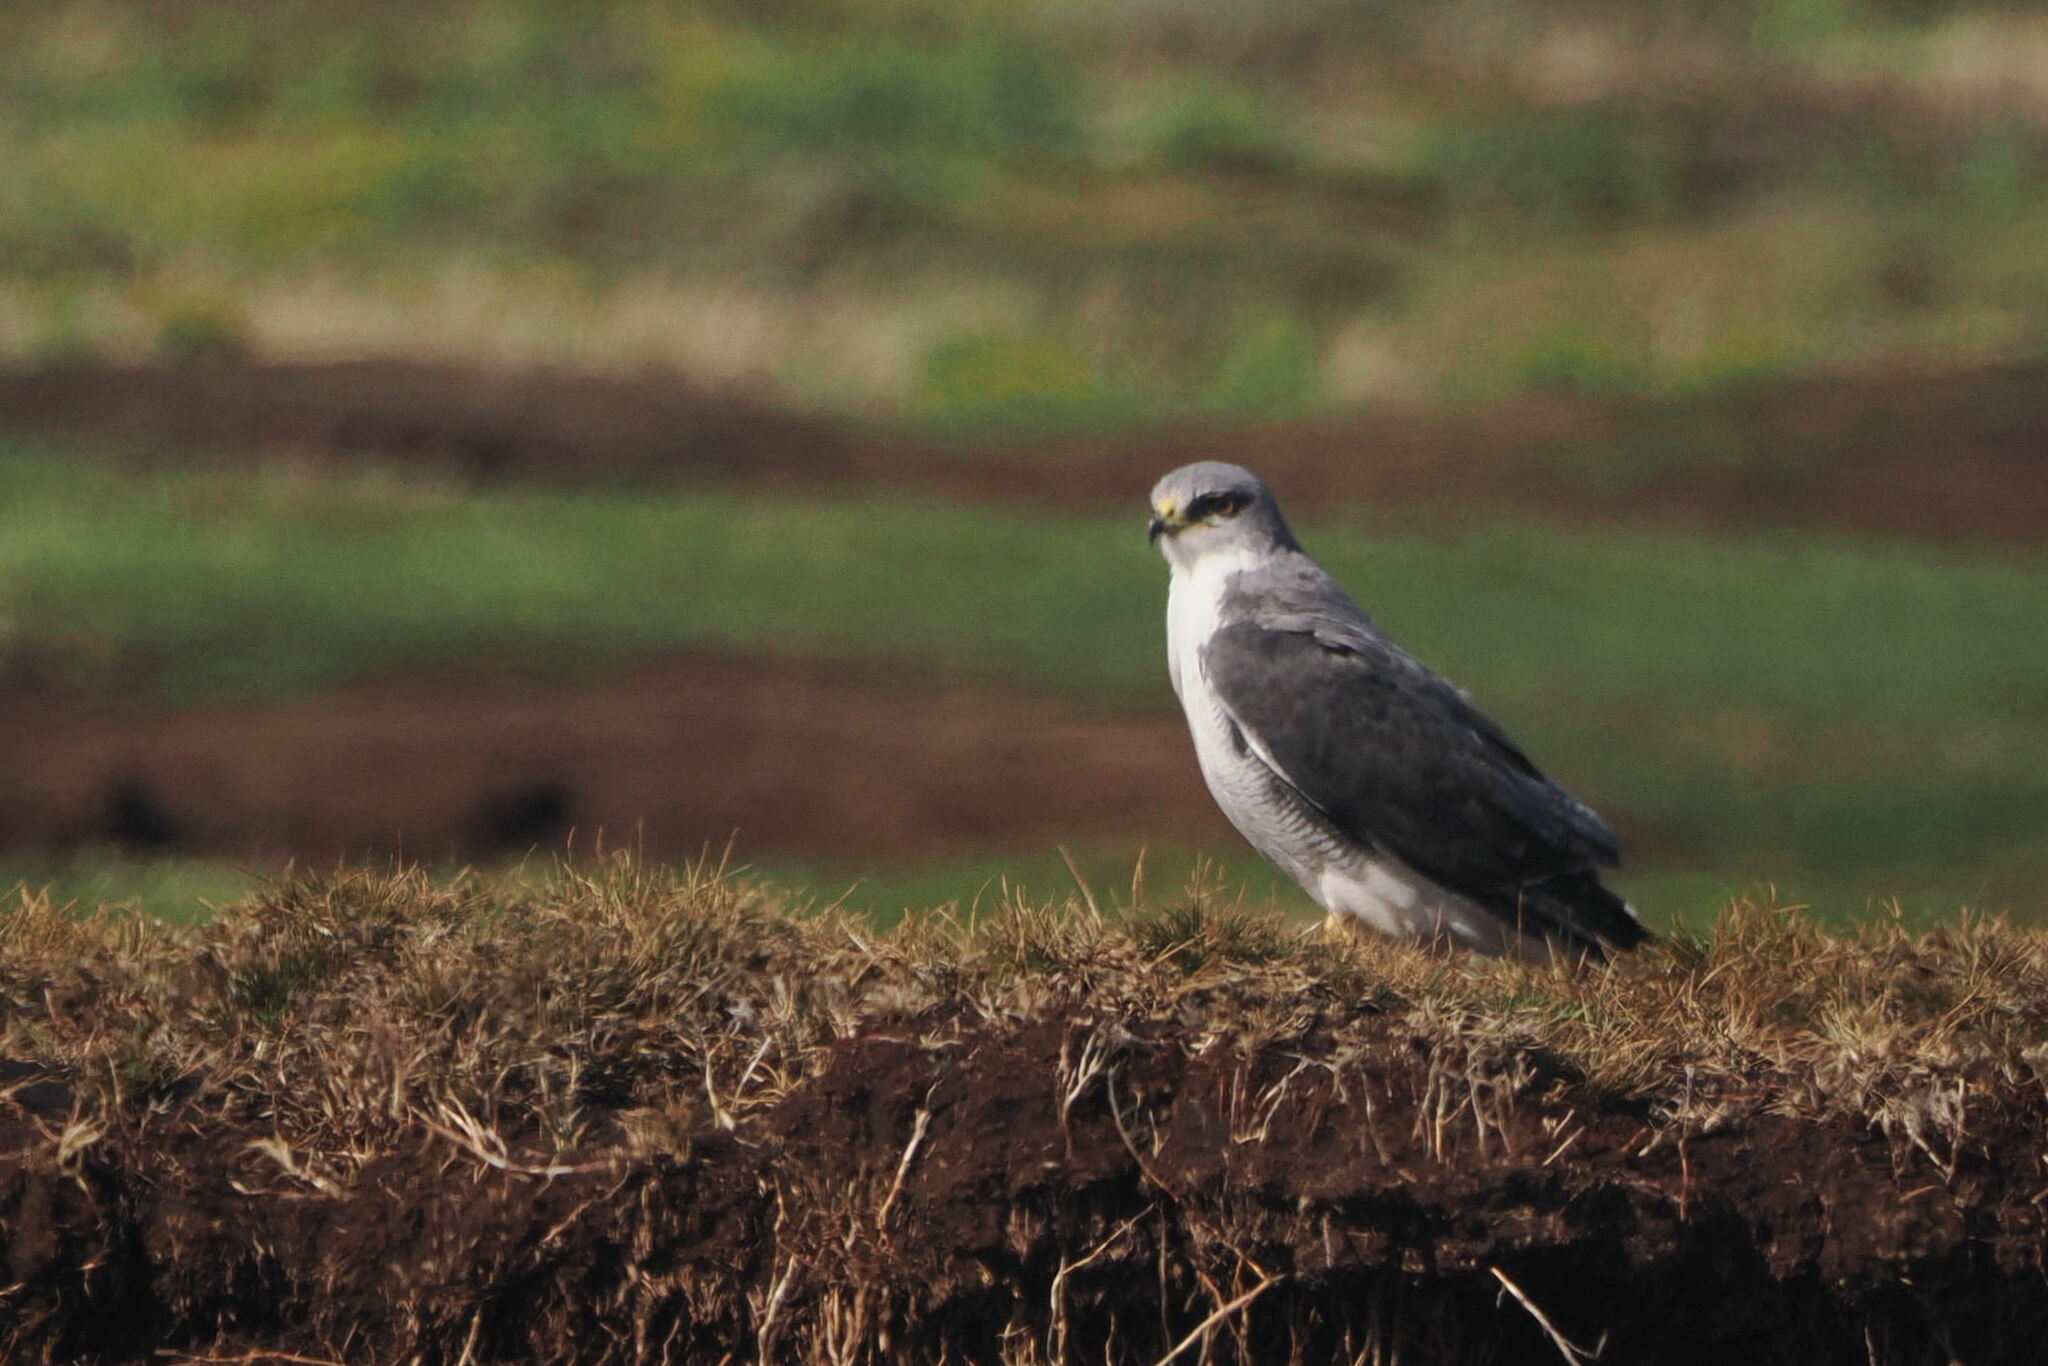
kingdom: Animalia
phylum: Chordata
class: Aves
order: Accipitriformes
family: Accipitridae
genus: Buteo
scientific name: Buteo polyosoma
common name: Variable hawk
